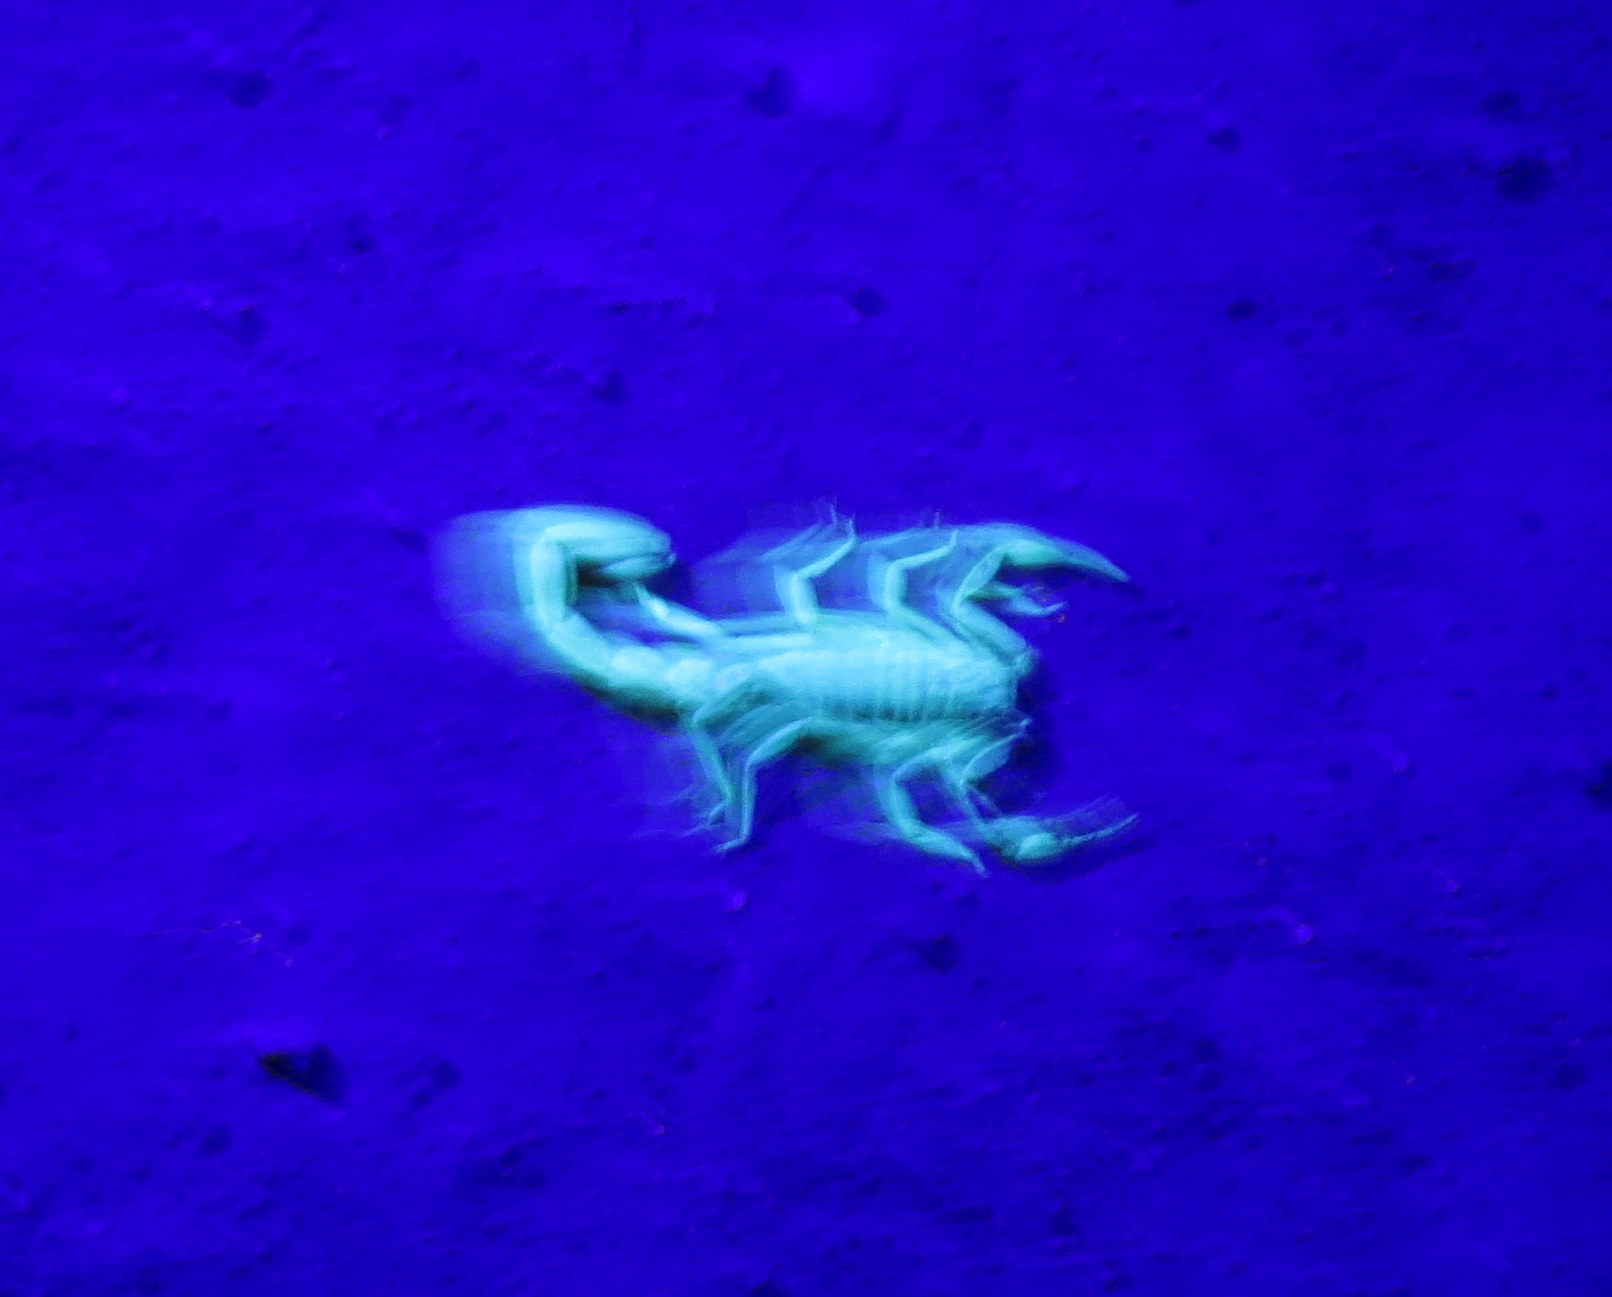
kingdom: Animalia
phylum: Arthropoda
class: Arachnida
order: Scorpiones
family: Vaejovidae
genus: Paravaejovis
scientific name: Paravaejovis puritanus
